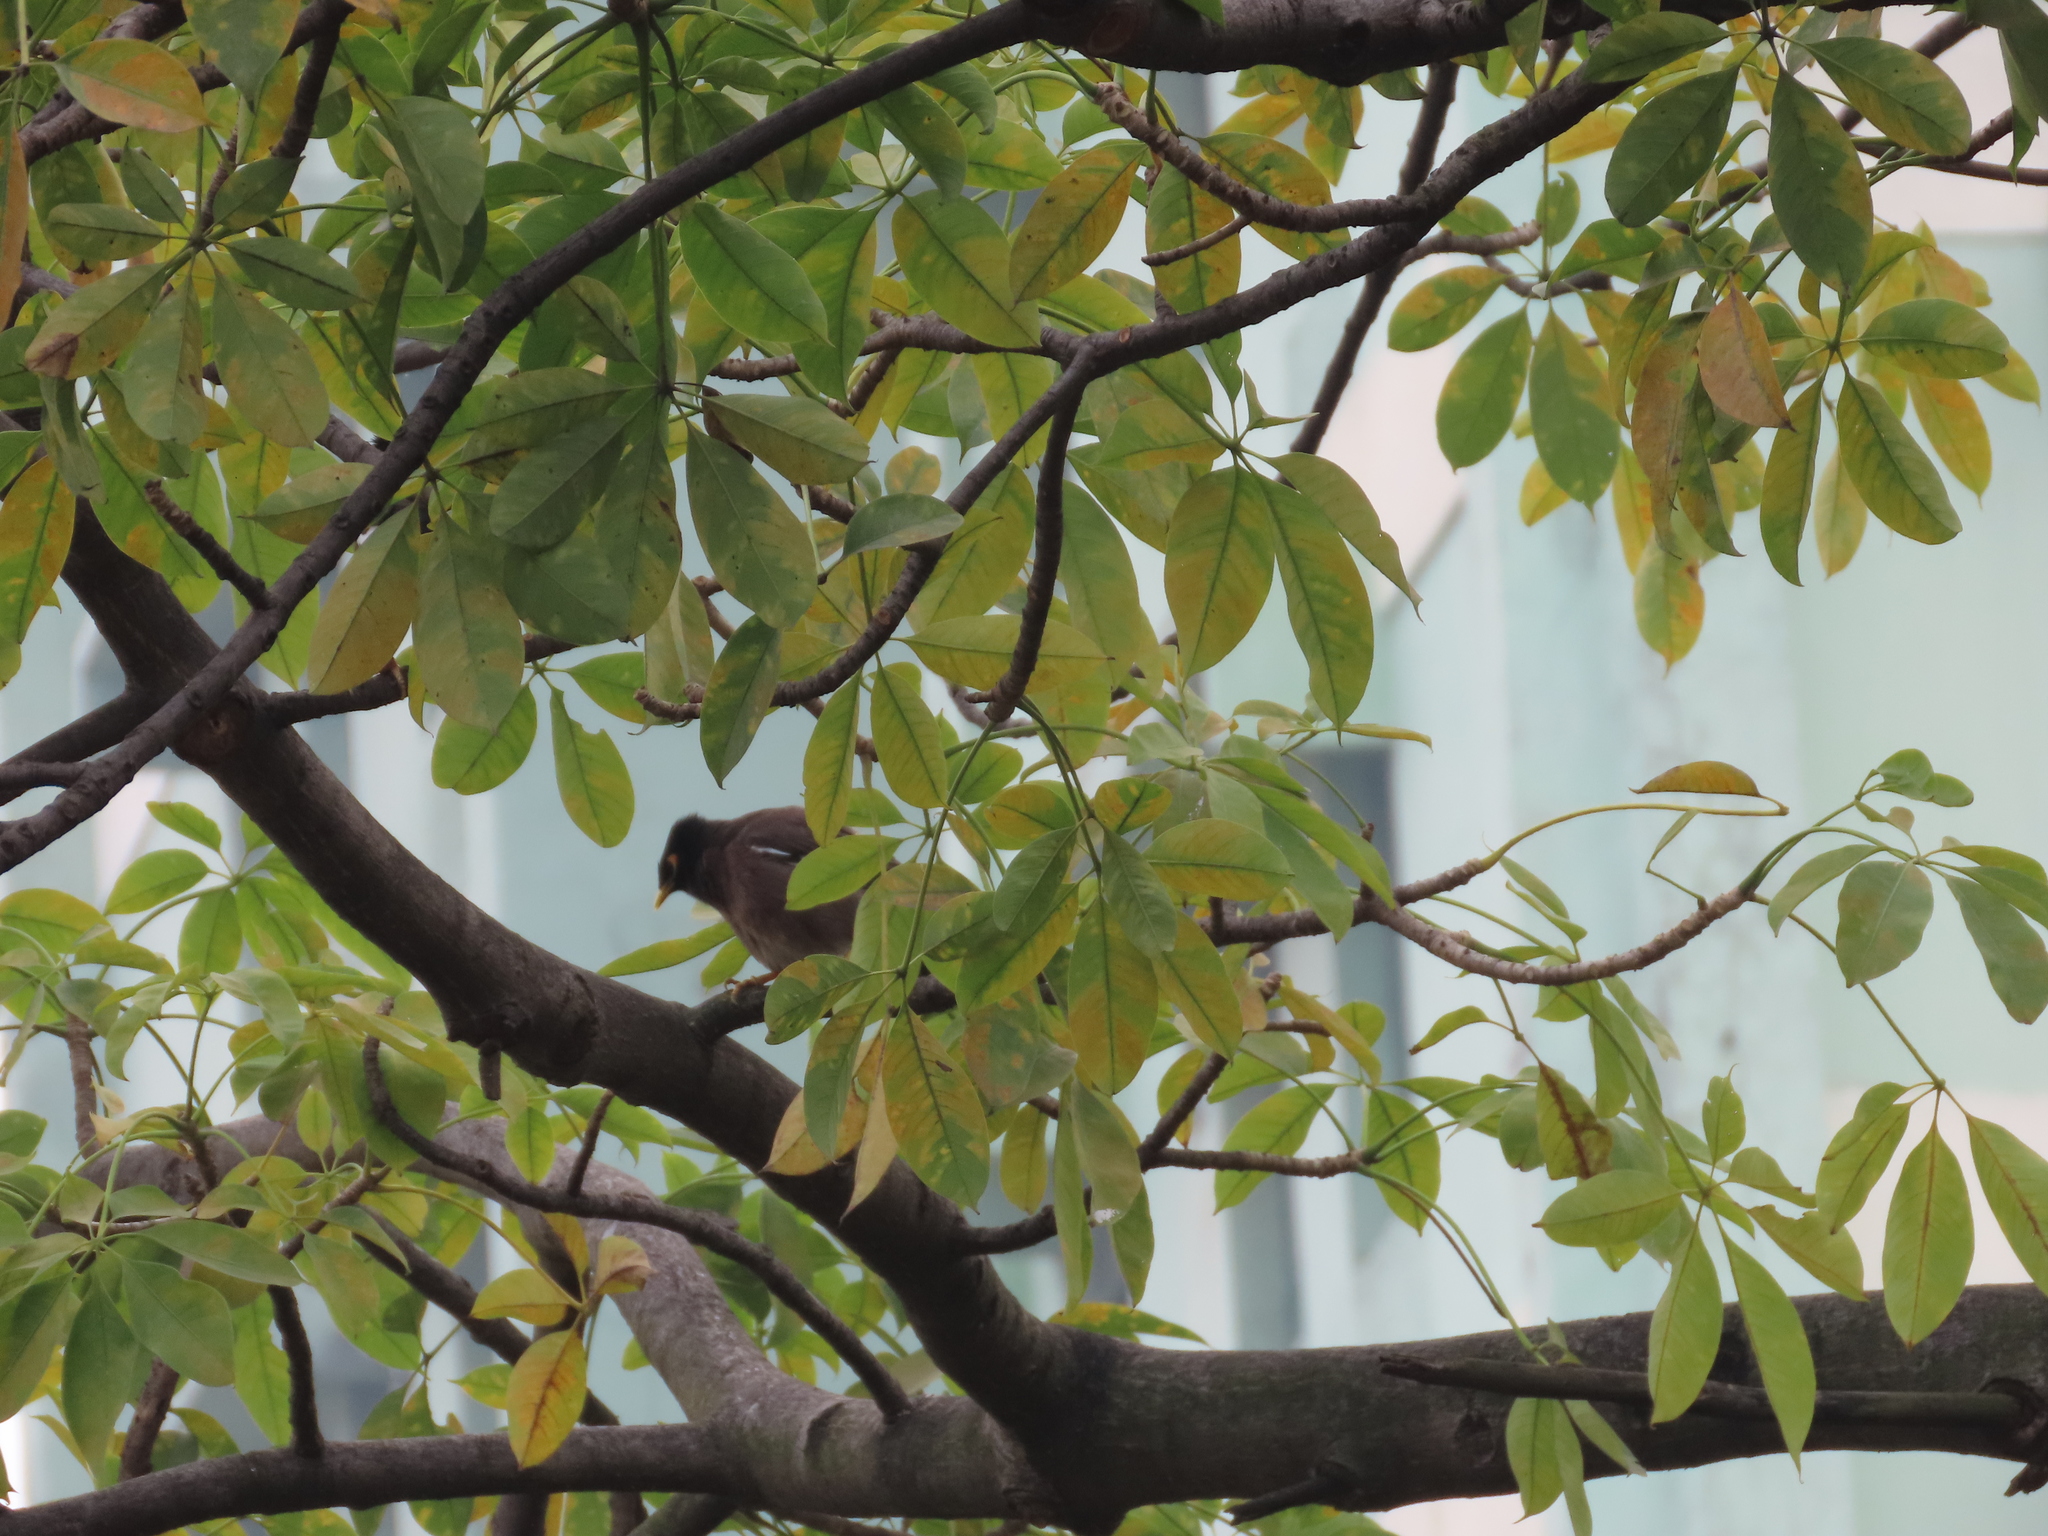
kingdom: Animalia
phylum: Chordata
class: Aves
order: Passeriformes
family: Sturnidae
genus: Acridotheres
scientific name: Acridotheres tristis
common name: Common myna
